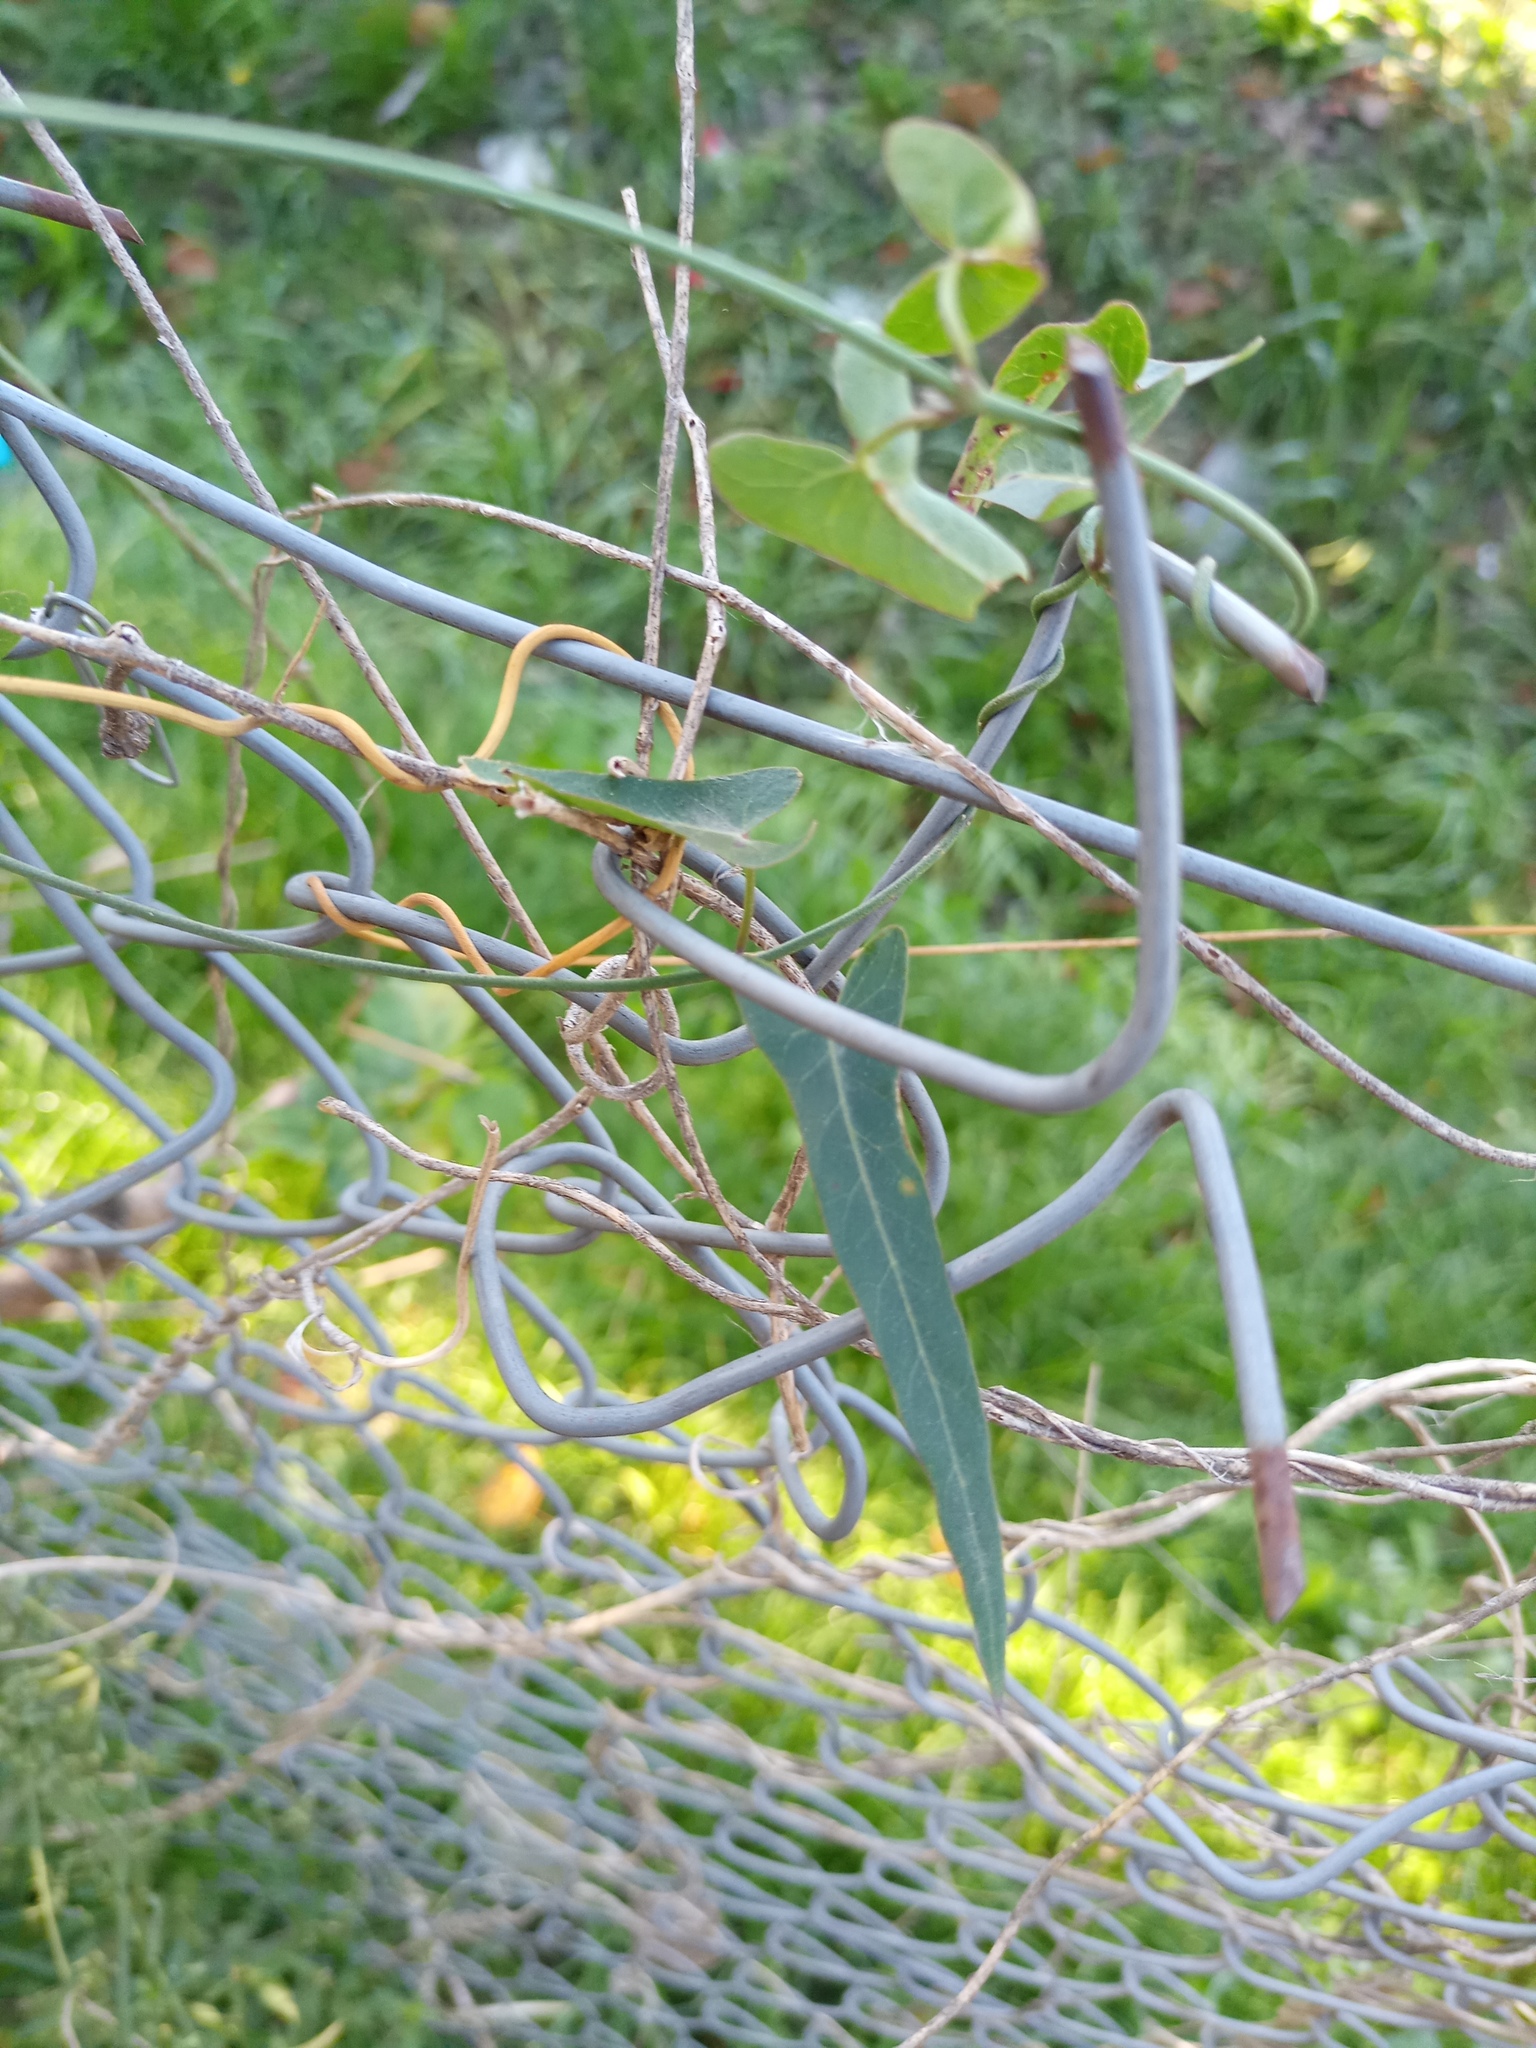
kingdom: Plantae
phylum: Tracheophyta
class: Magnoliopsida
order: Gentianales
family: Apocynaceae
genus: Araujia
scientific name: Araujia angustifolia
